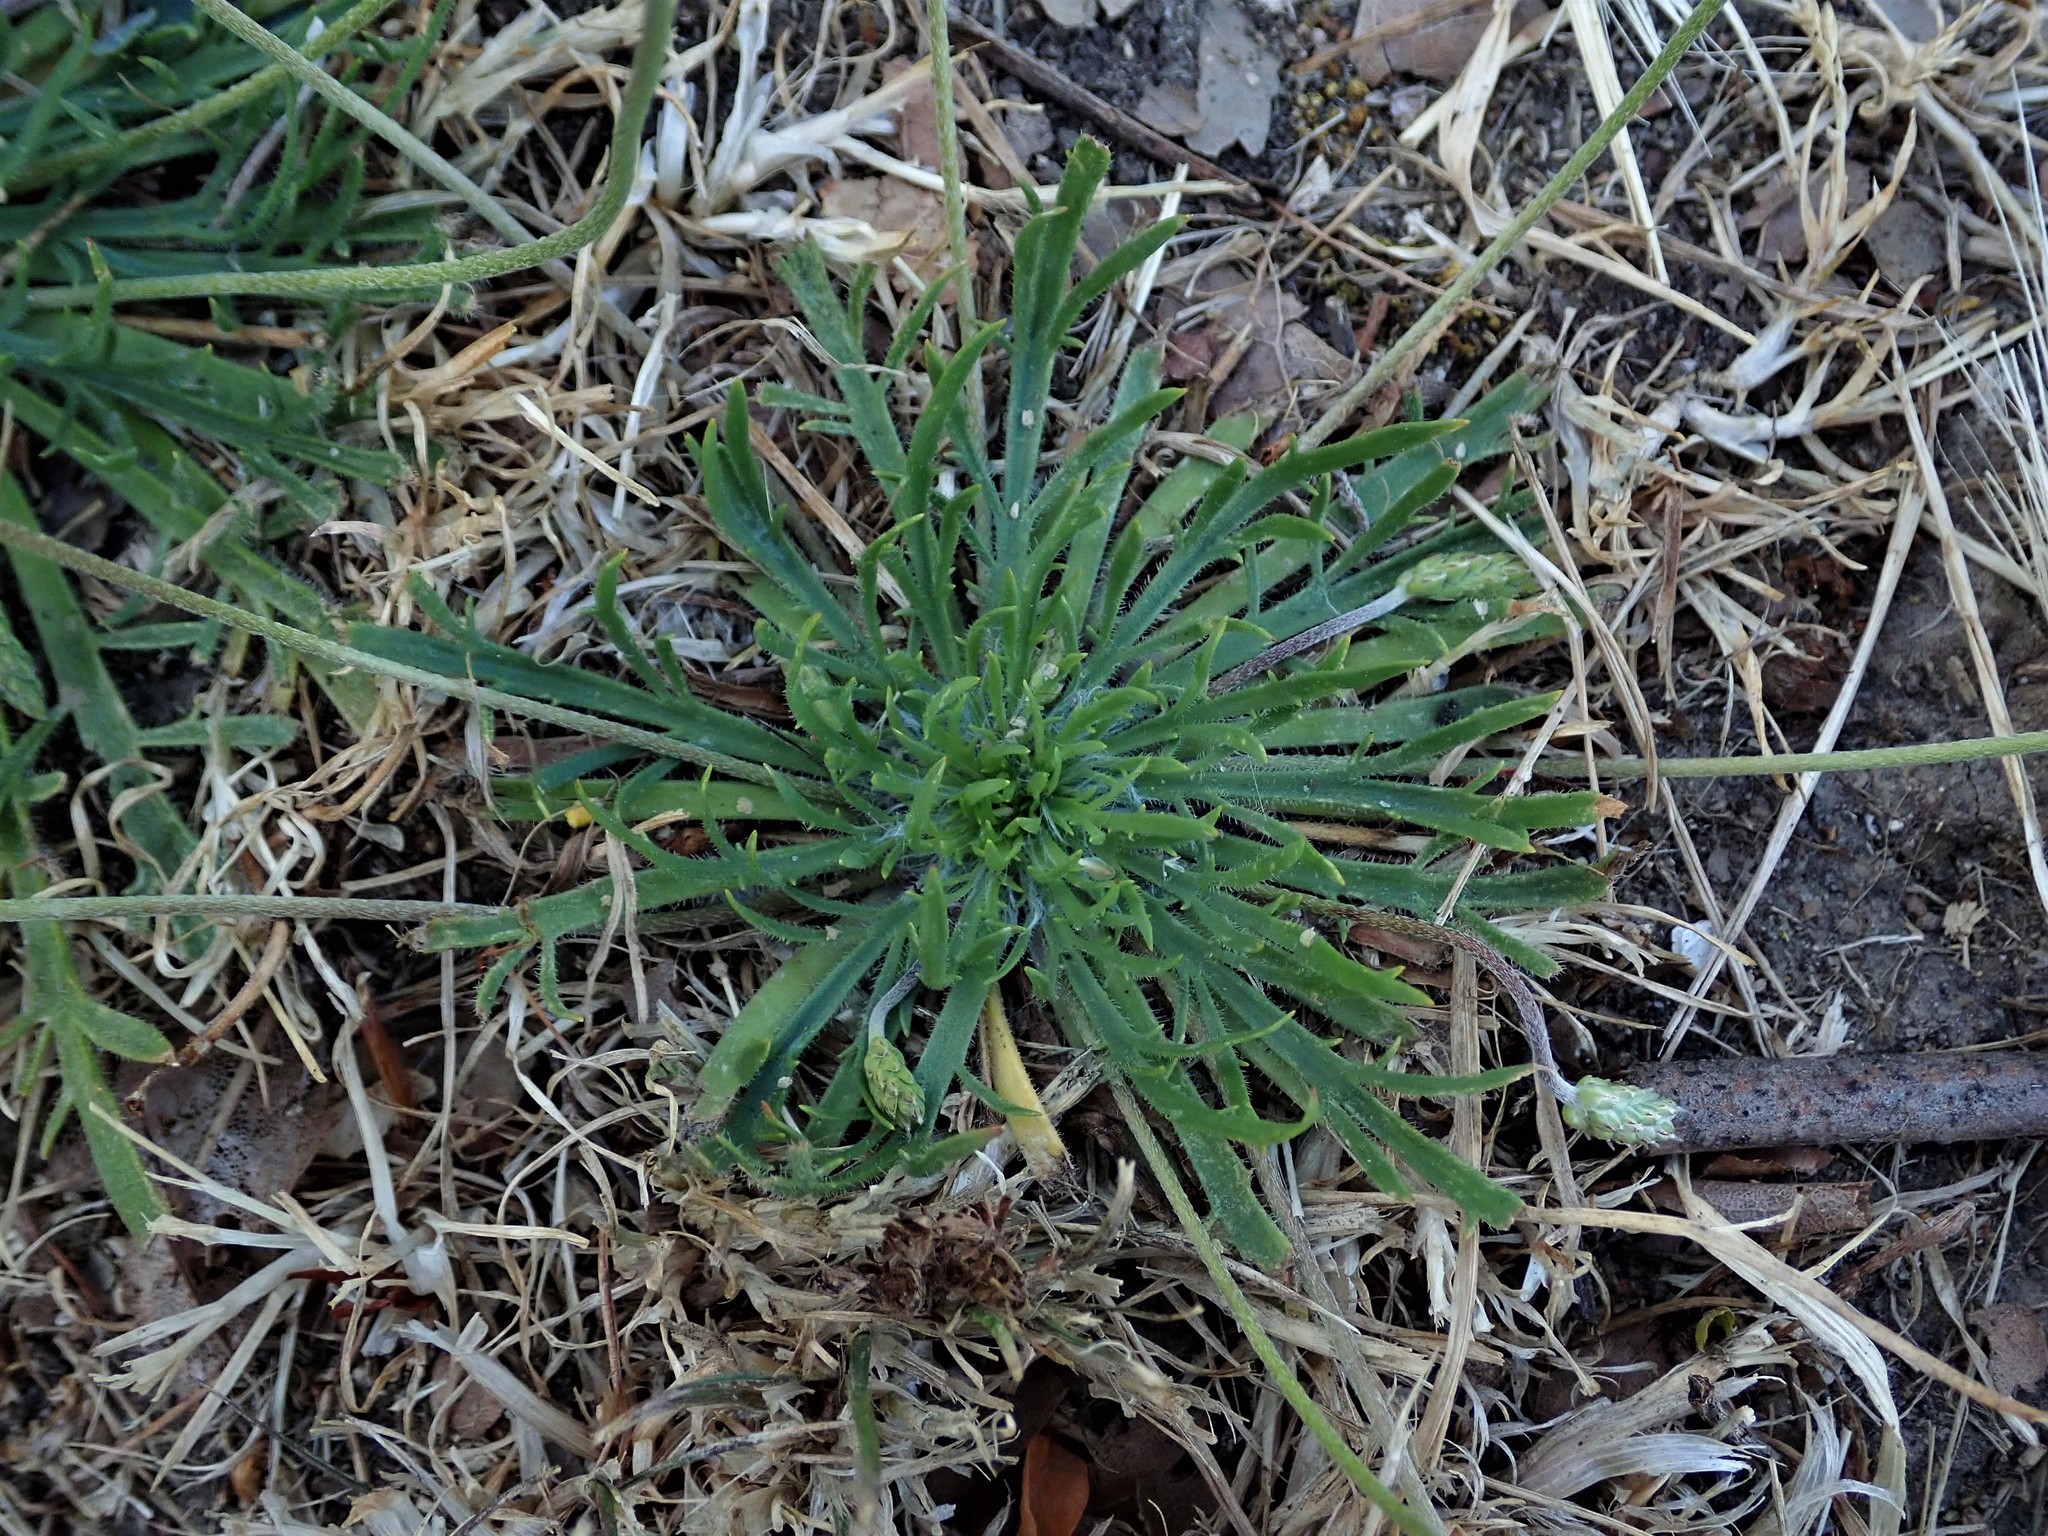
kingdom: Plantae
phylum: Tracheophyta
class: Magnoliopsida
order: Lamiales
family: Plantaginaceae
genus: Plantago
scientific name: Plantago coronopus
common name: Buck's-horn plantain
